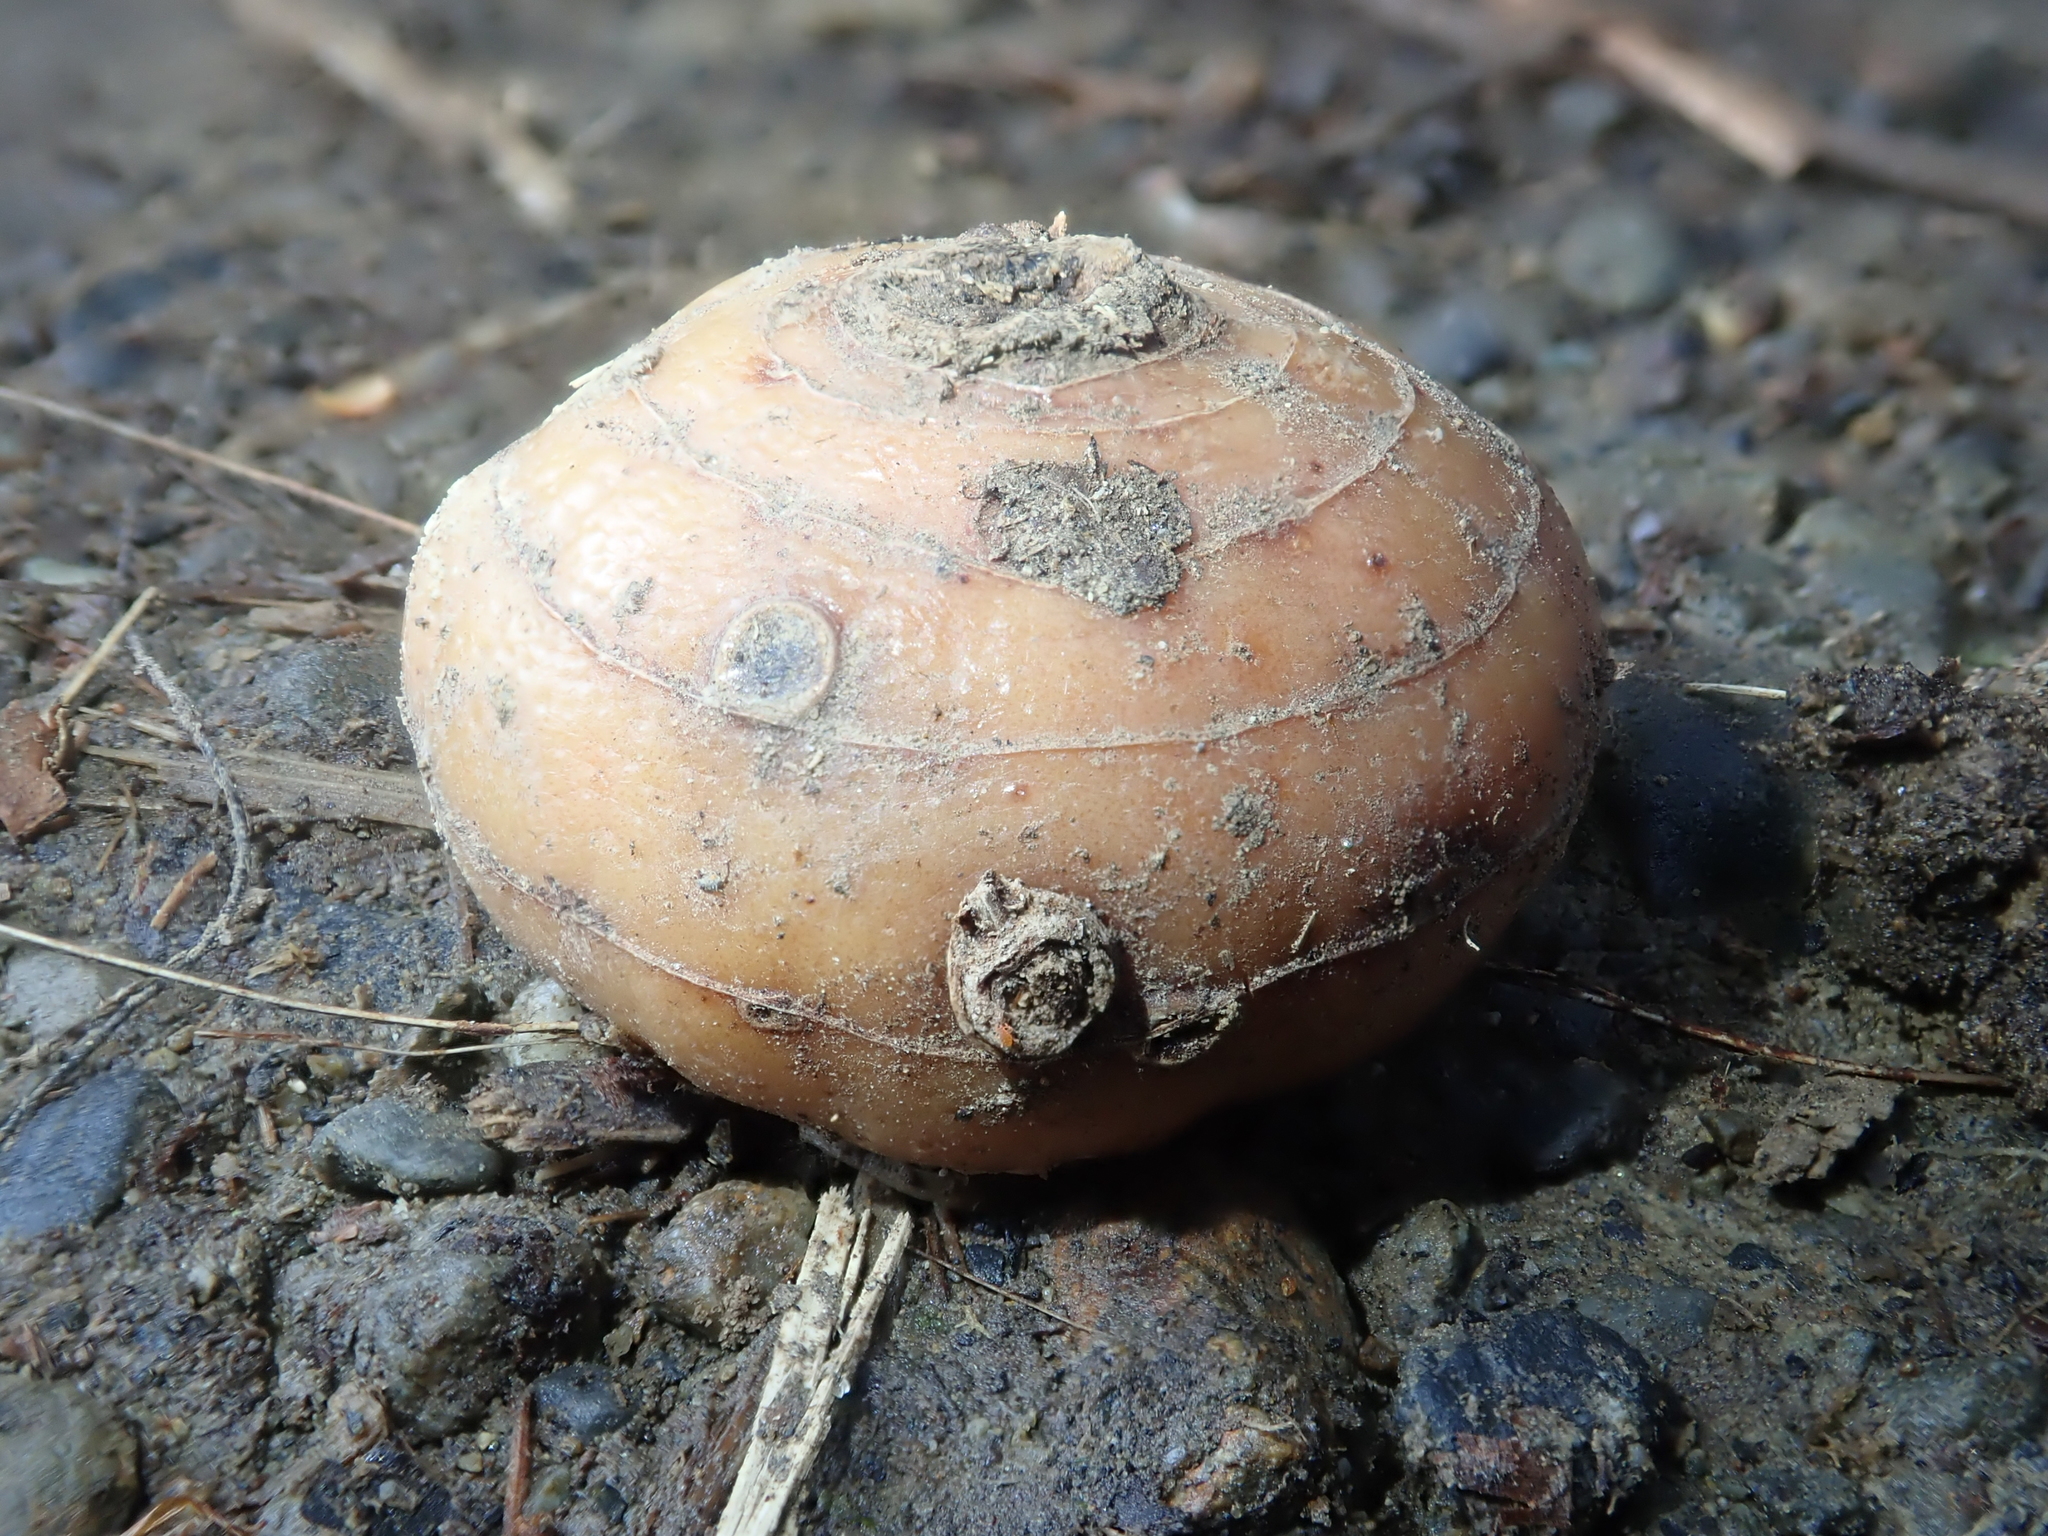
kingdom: Plantae
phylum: Tracheophyta
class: Liliopsida
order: Asparagales
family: Iridaceae
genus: Crocosmia
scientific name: Crocosmia crocosmiiflora
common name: Montbretia
